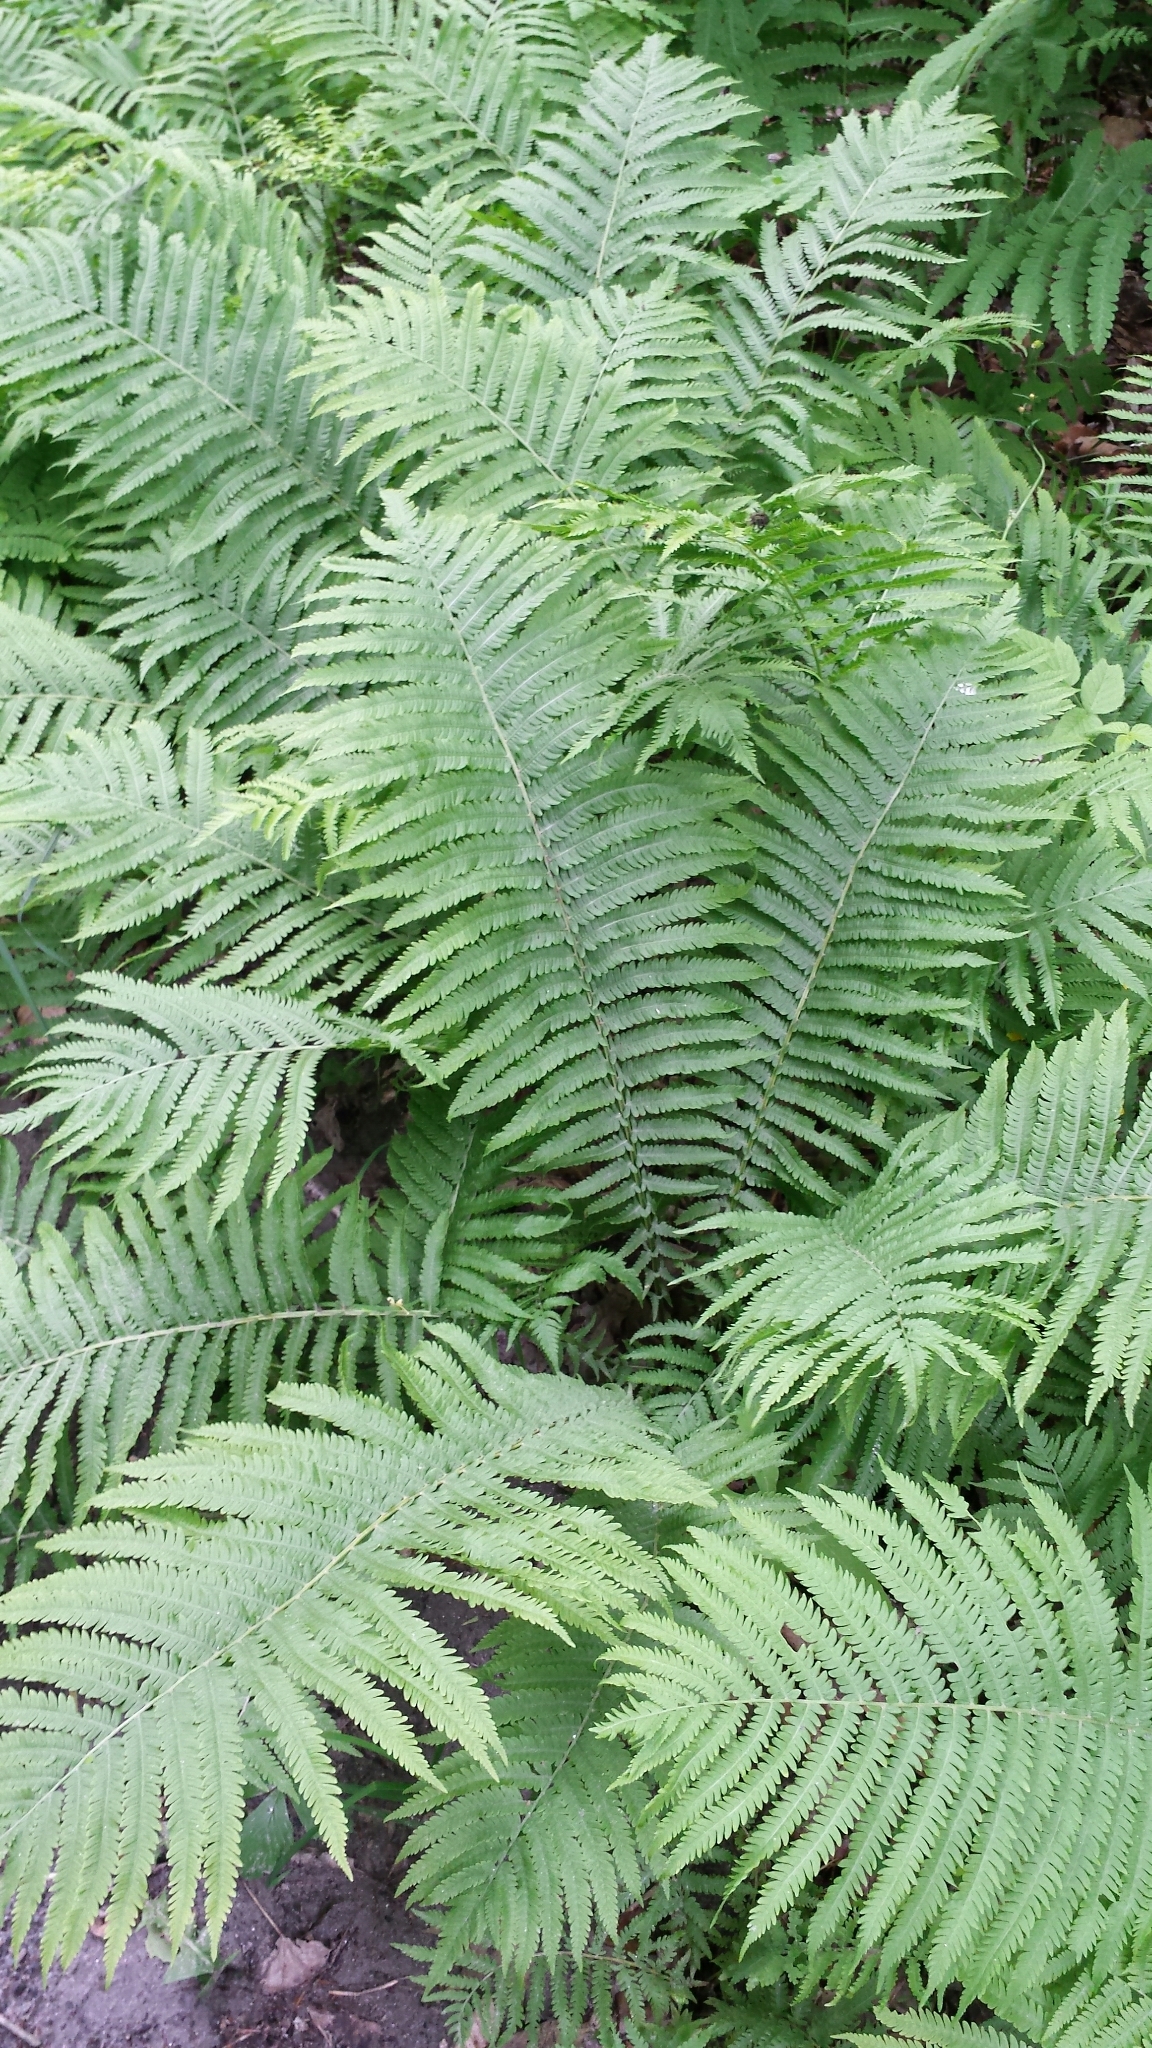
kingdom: Plantae
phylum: Tracheophyta
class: Polypodiopsida
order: Polypodiales
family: Onocleaceae
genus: Matteuccia
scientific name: Matteuccia struthiopteris
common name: Ostrich fern
